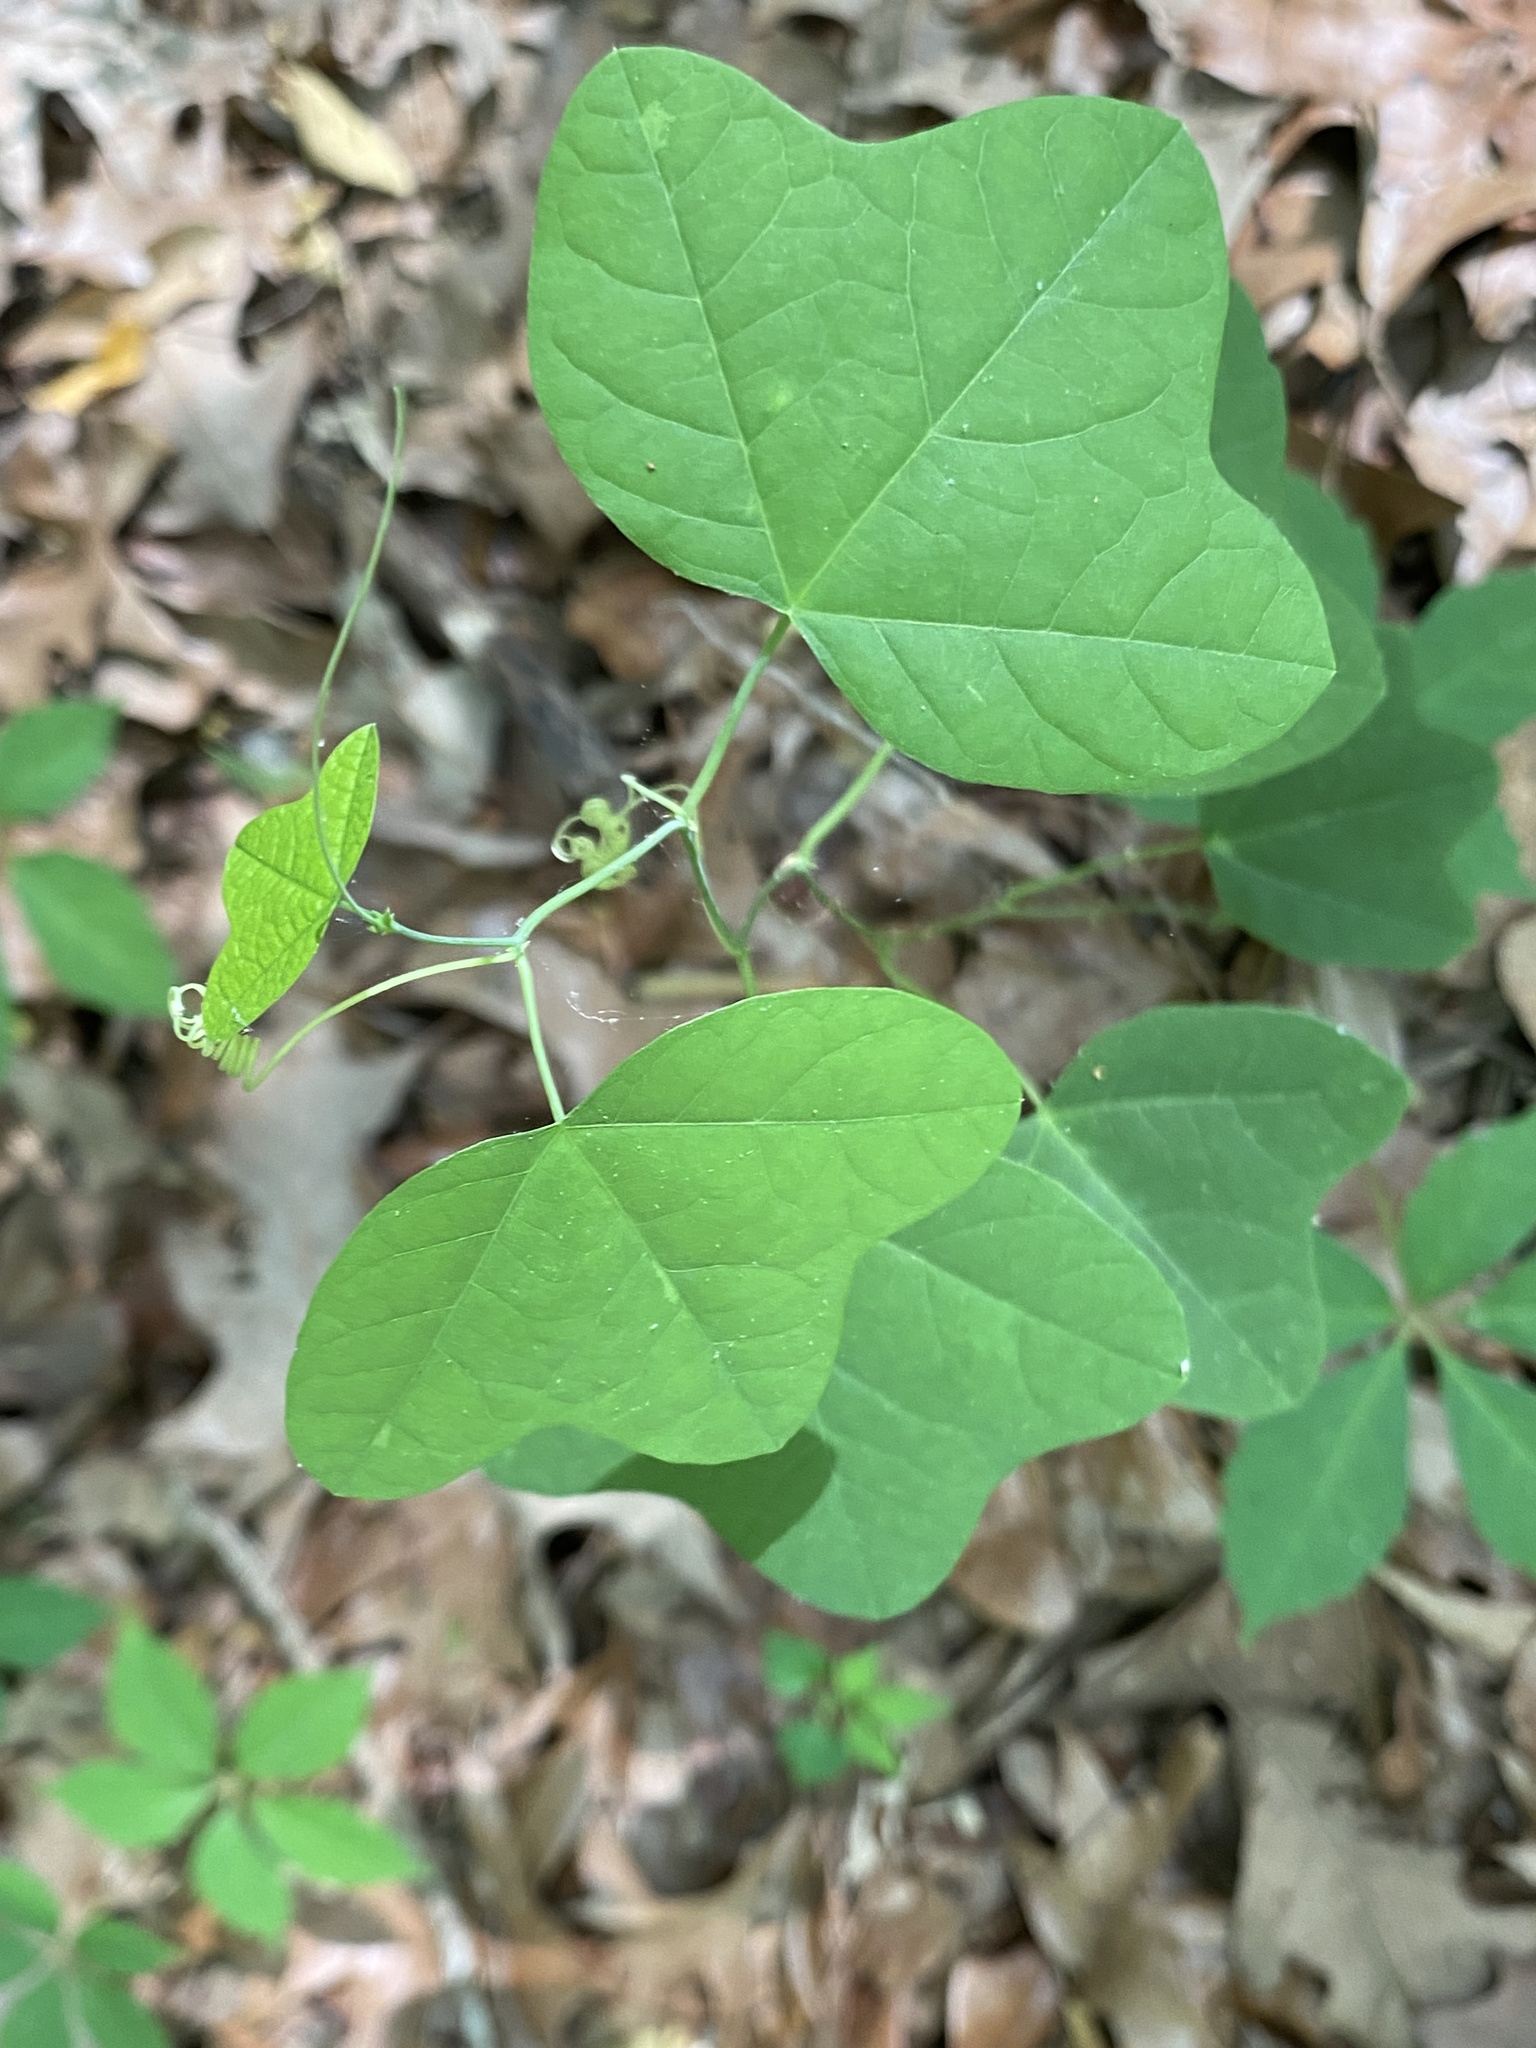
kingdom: Plantae
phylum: Tracheophyta
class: Magnoliopsida
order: Malpighiales
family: Passifloraceae
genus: Passiflora
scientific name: Passiflora lutea
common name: Yellow passionflower
